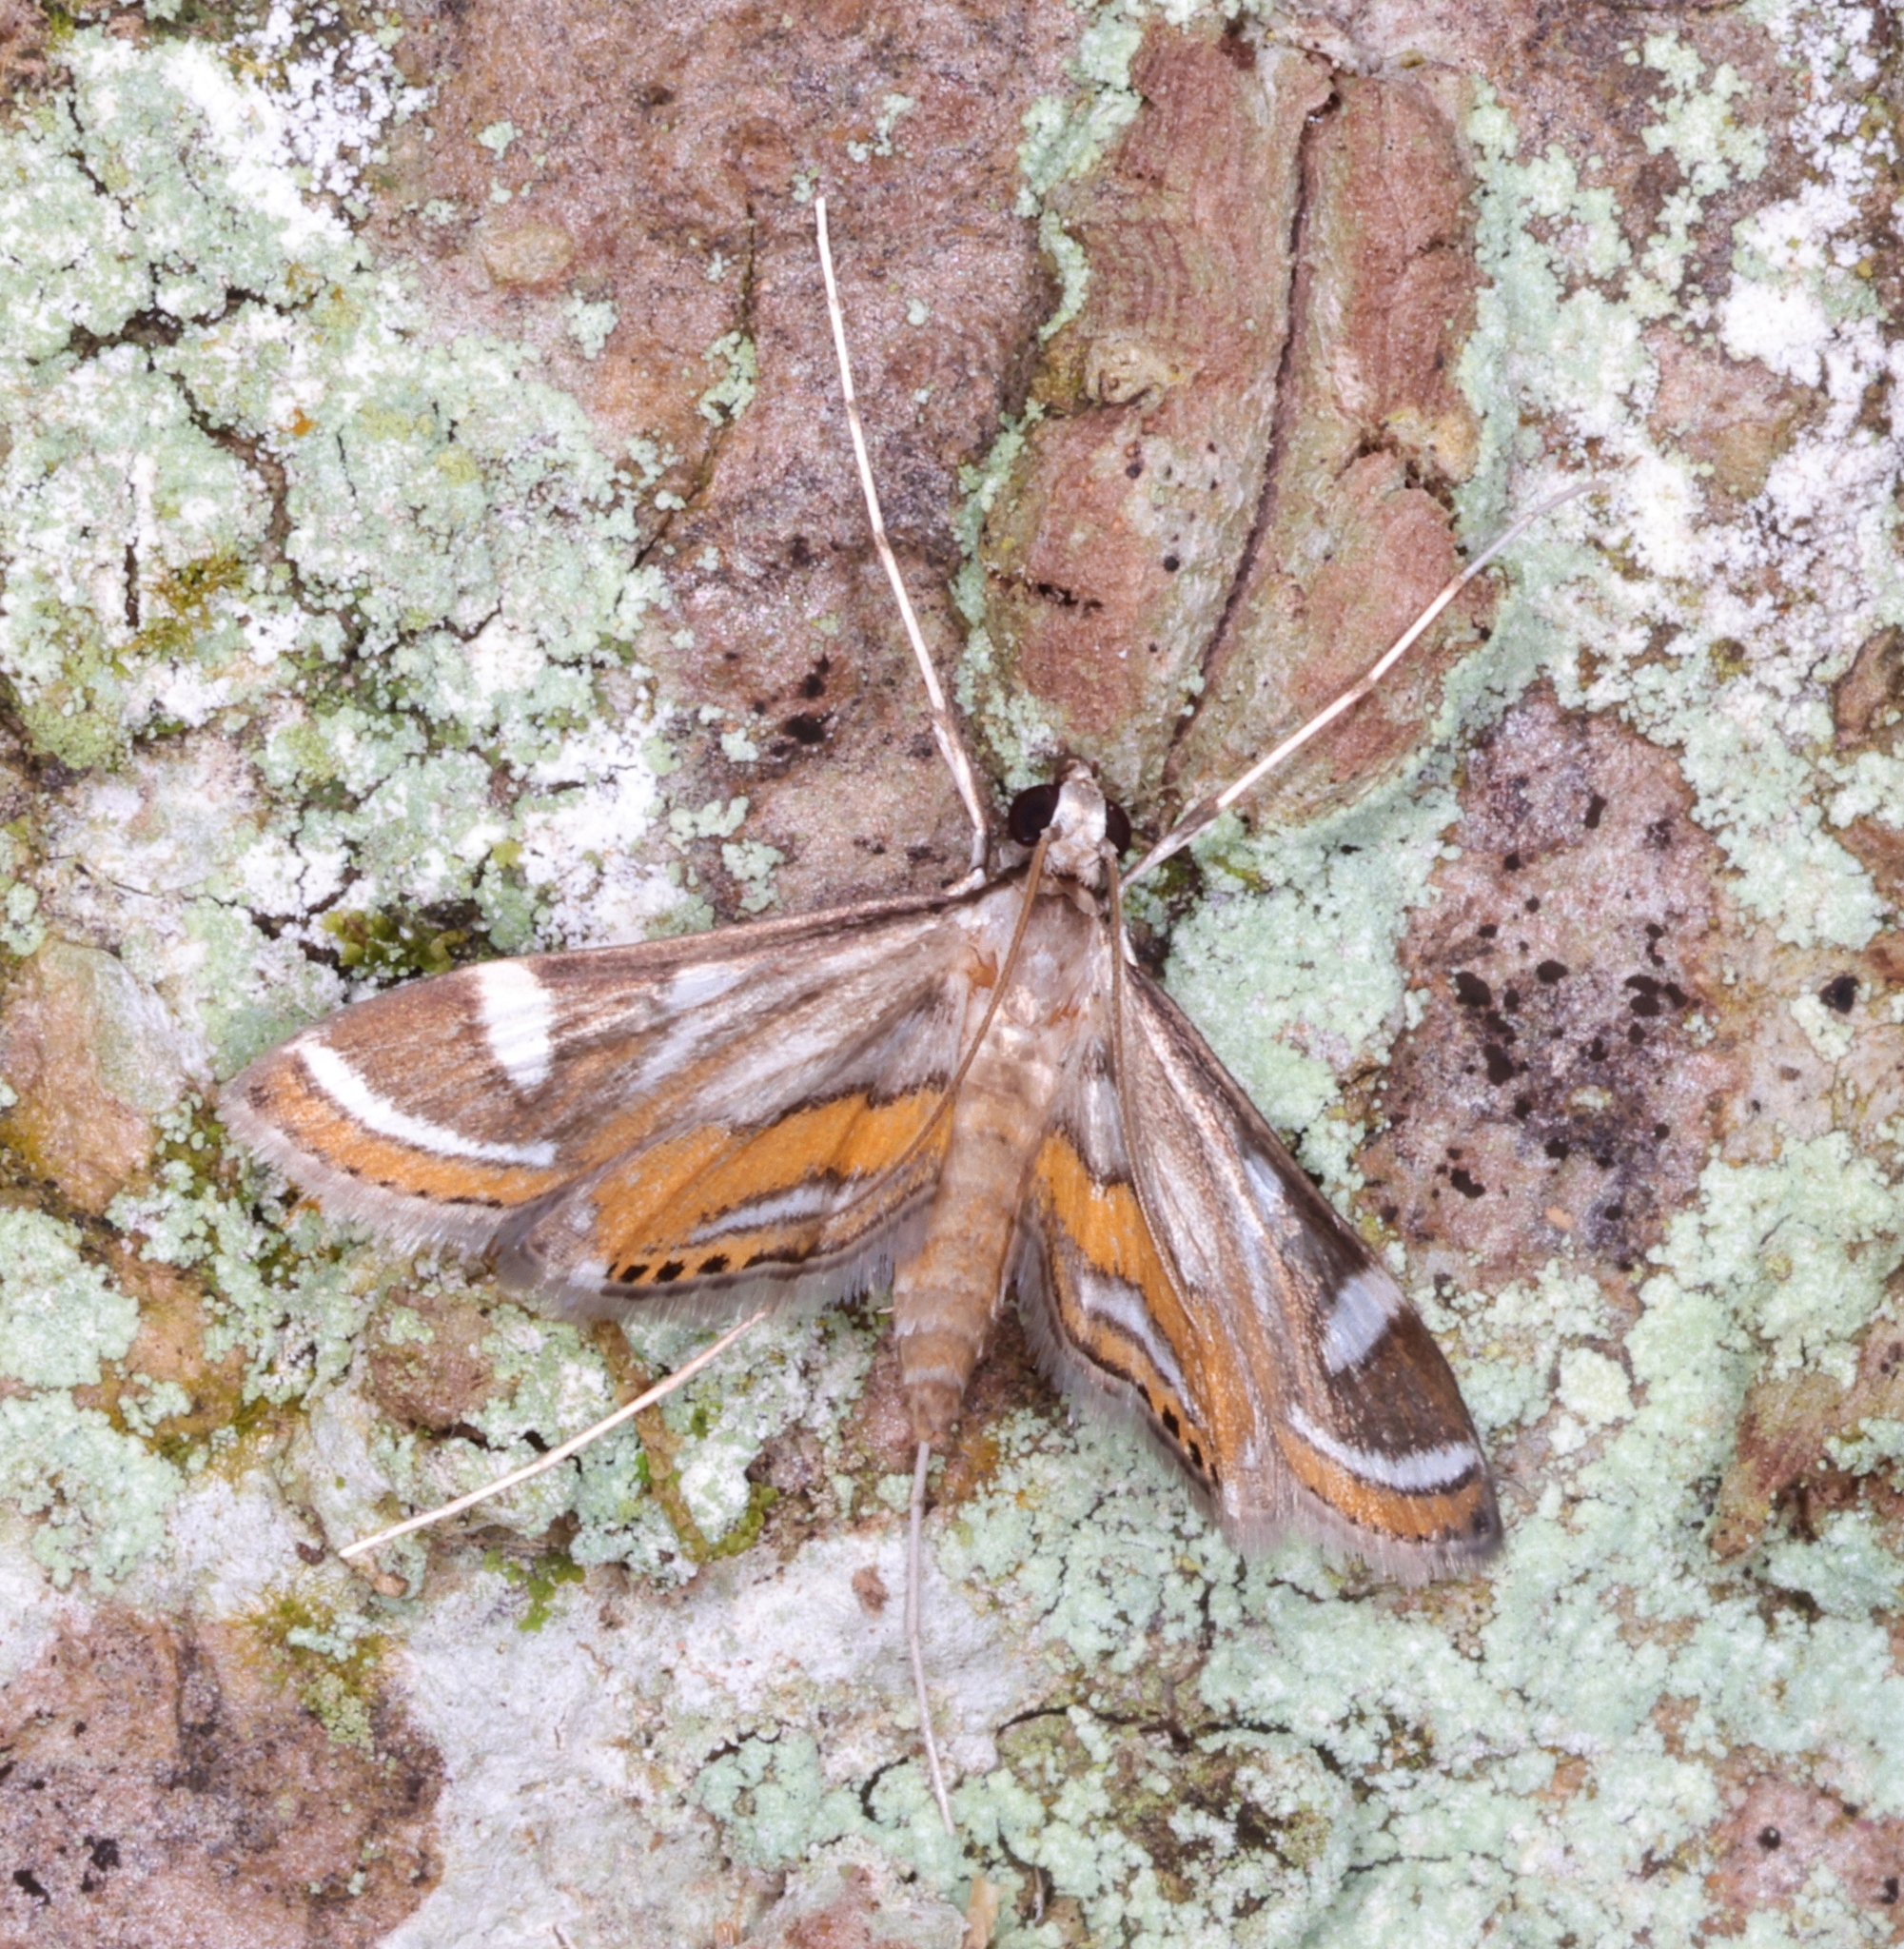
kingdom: Animalia
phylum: Arthropoda
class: Insecta
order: Lepidoptera
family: Crambidae
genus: Strepsinoma
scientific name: Strepsinoma croesusalis
